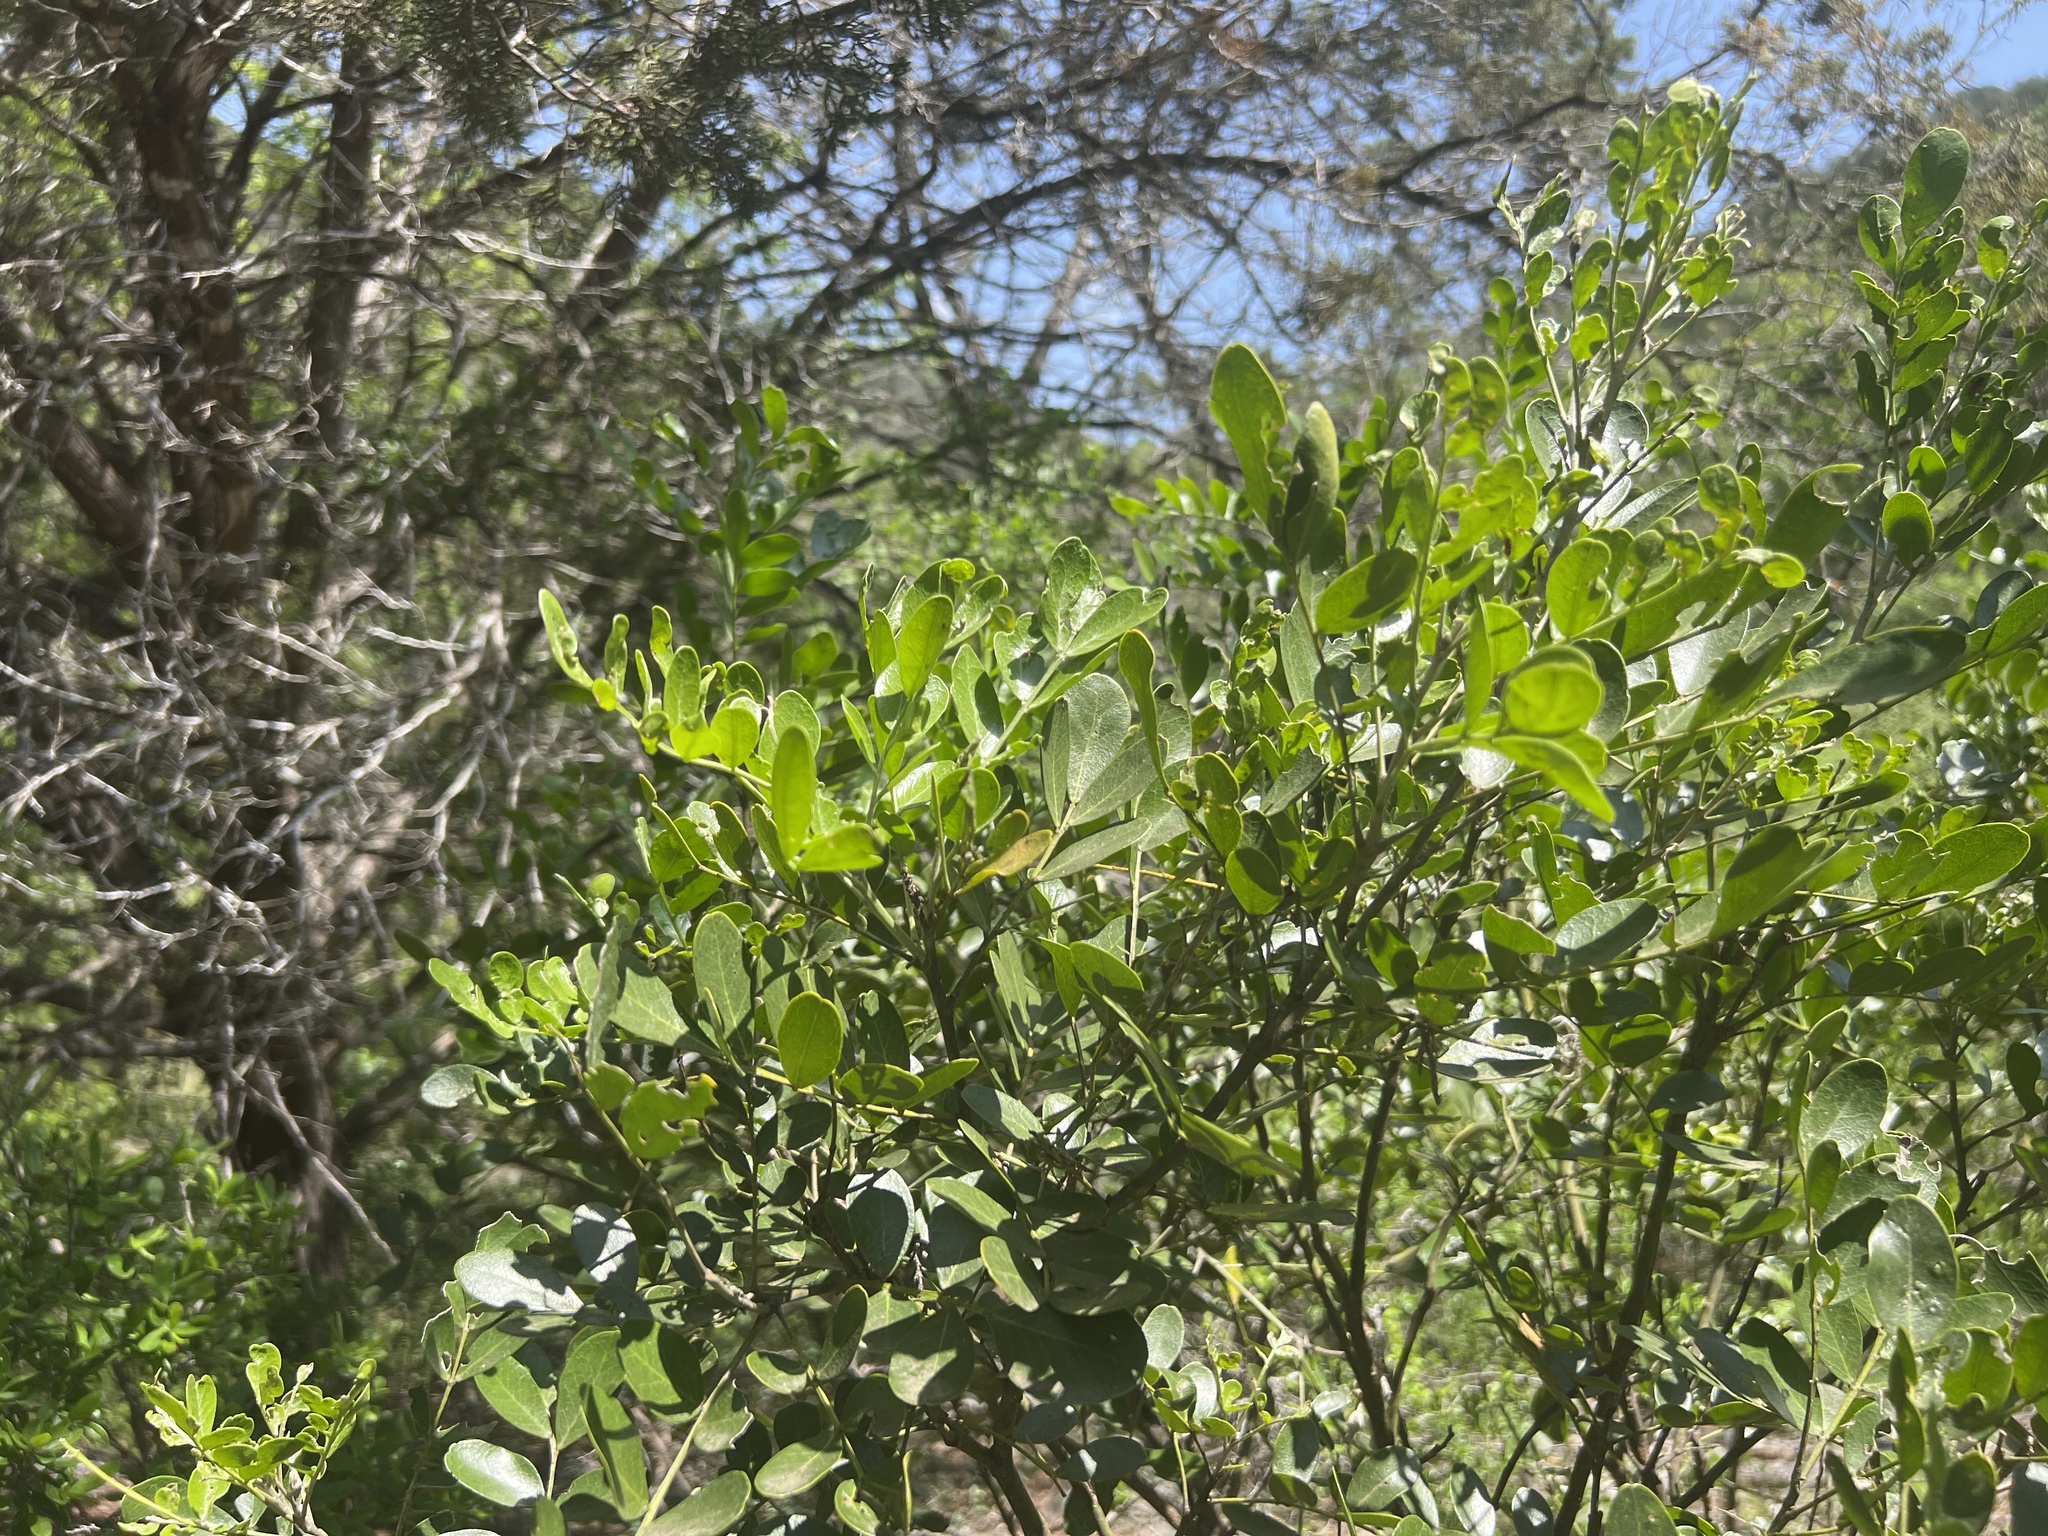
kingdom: Plantae
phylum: Tracheophyta
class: Magnoliopsida
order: Fabales
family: Fabaceae
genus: Dermatophyllum
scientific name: Dermatophyllum secundiflorum
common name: Texas-mountain-laurel
